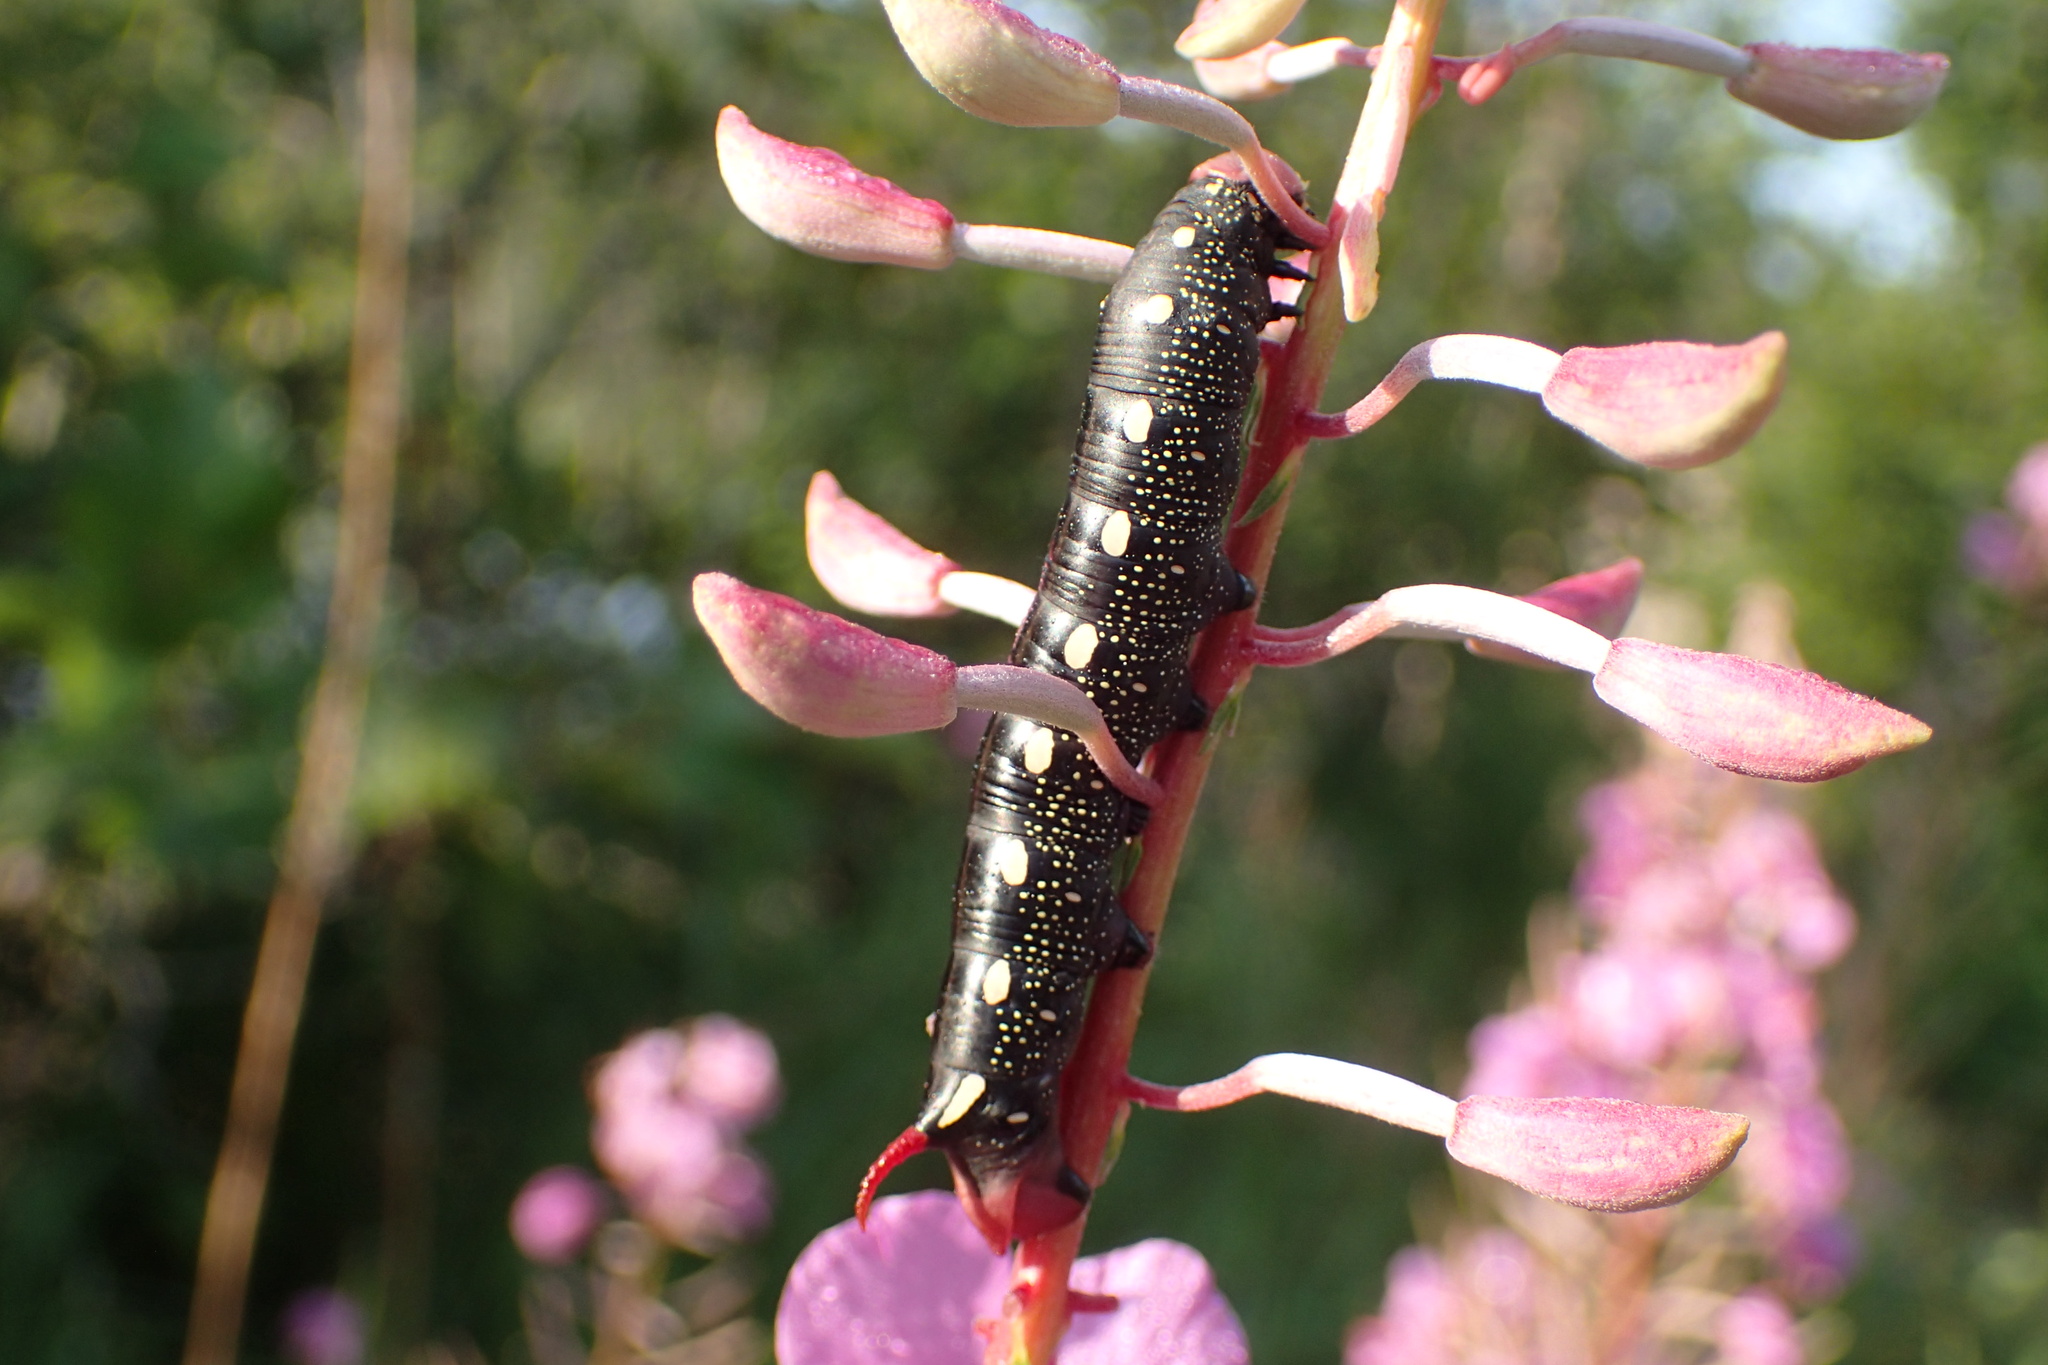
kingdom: Animalia
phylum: Arthropoda
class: Insecta
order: Lepidoptera
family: Sphingidae
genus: Hyles
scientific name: Hyles gallii
